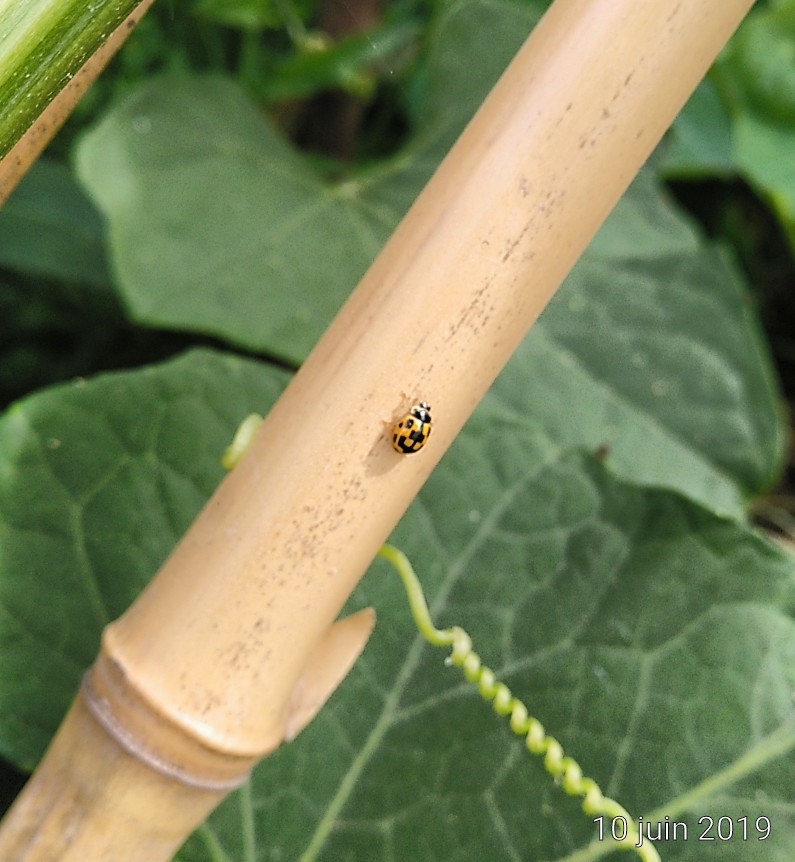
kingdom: Animalia
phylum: Arthropoda
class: Insecta
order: Coleoptera
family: Coccinellidae
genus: Propylaea
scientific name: Propylaea quatuordecimpunctata
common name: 14-spotted ladybird beetle
